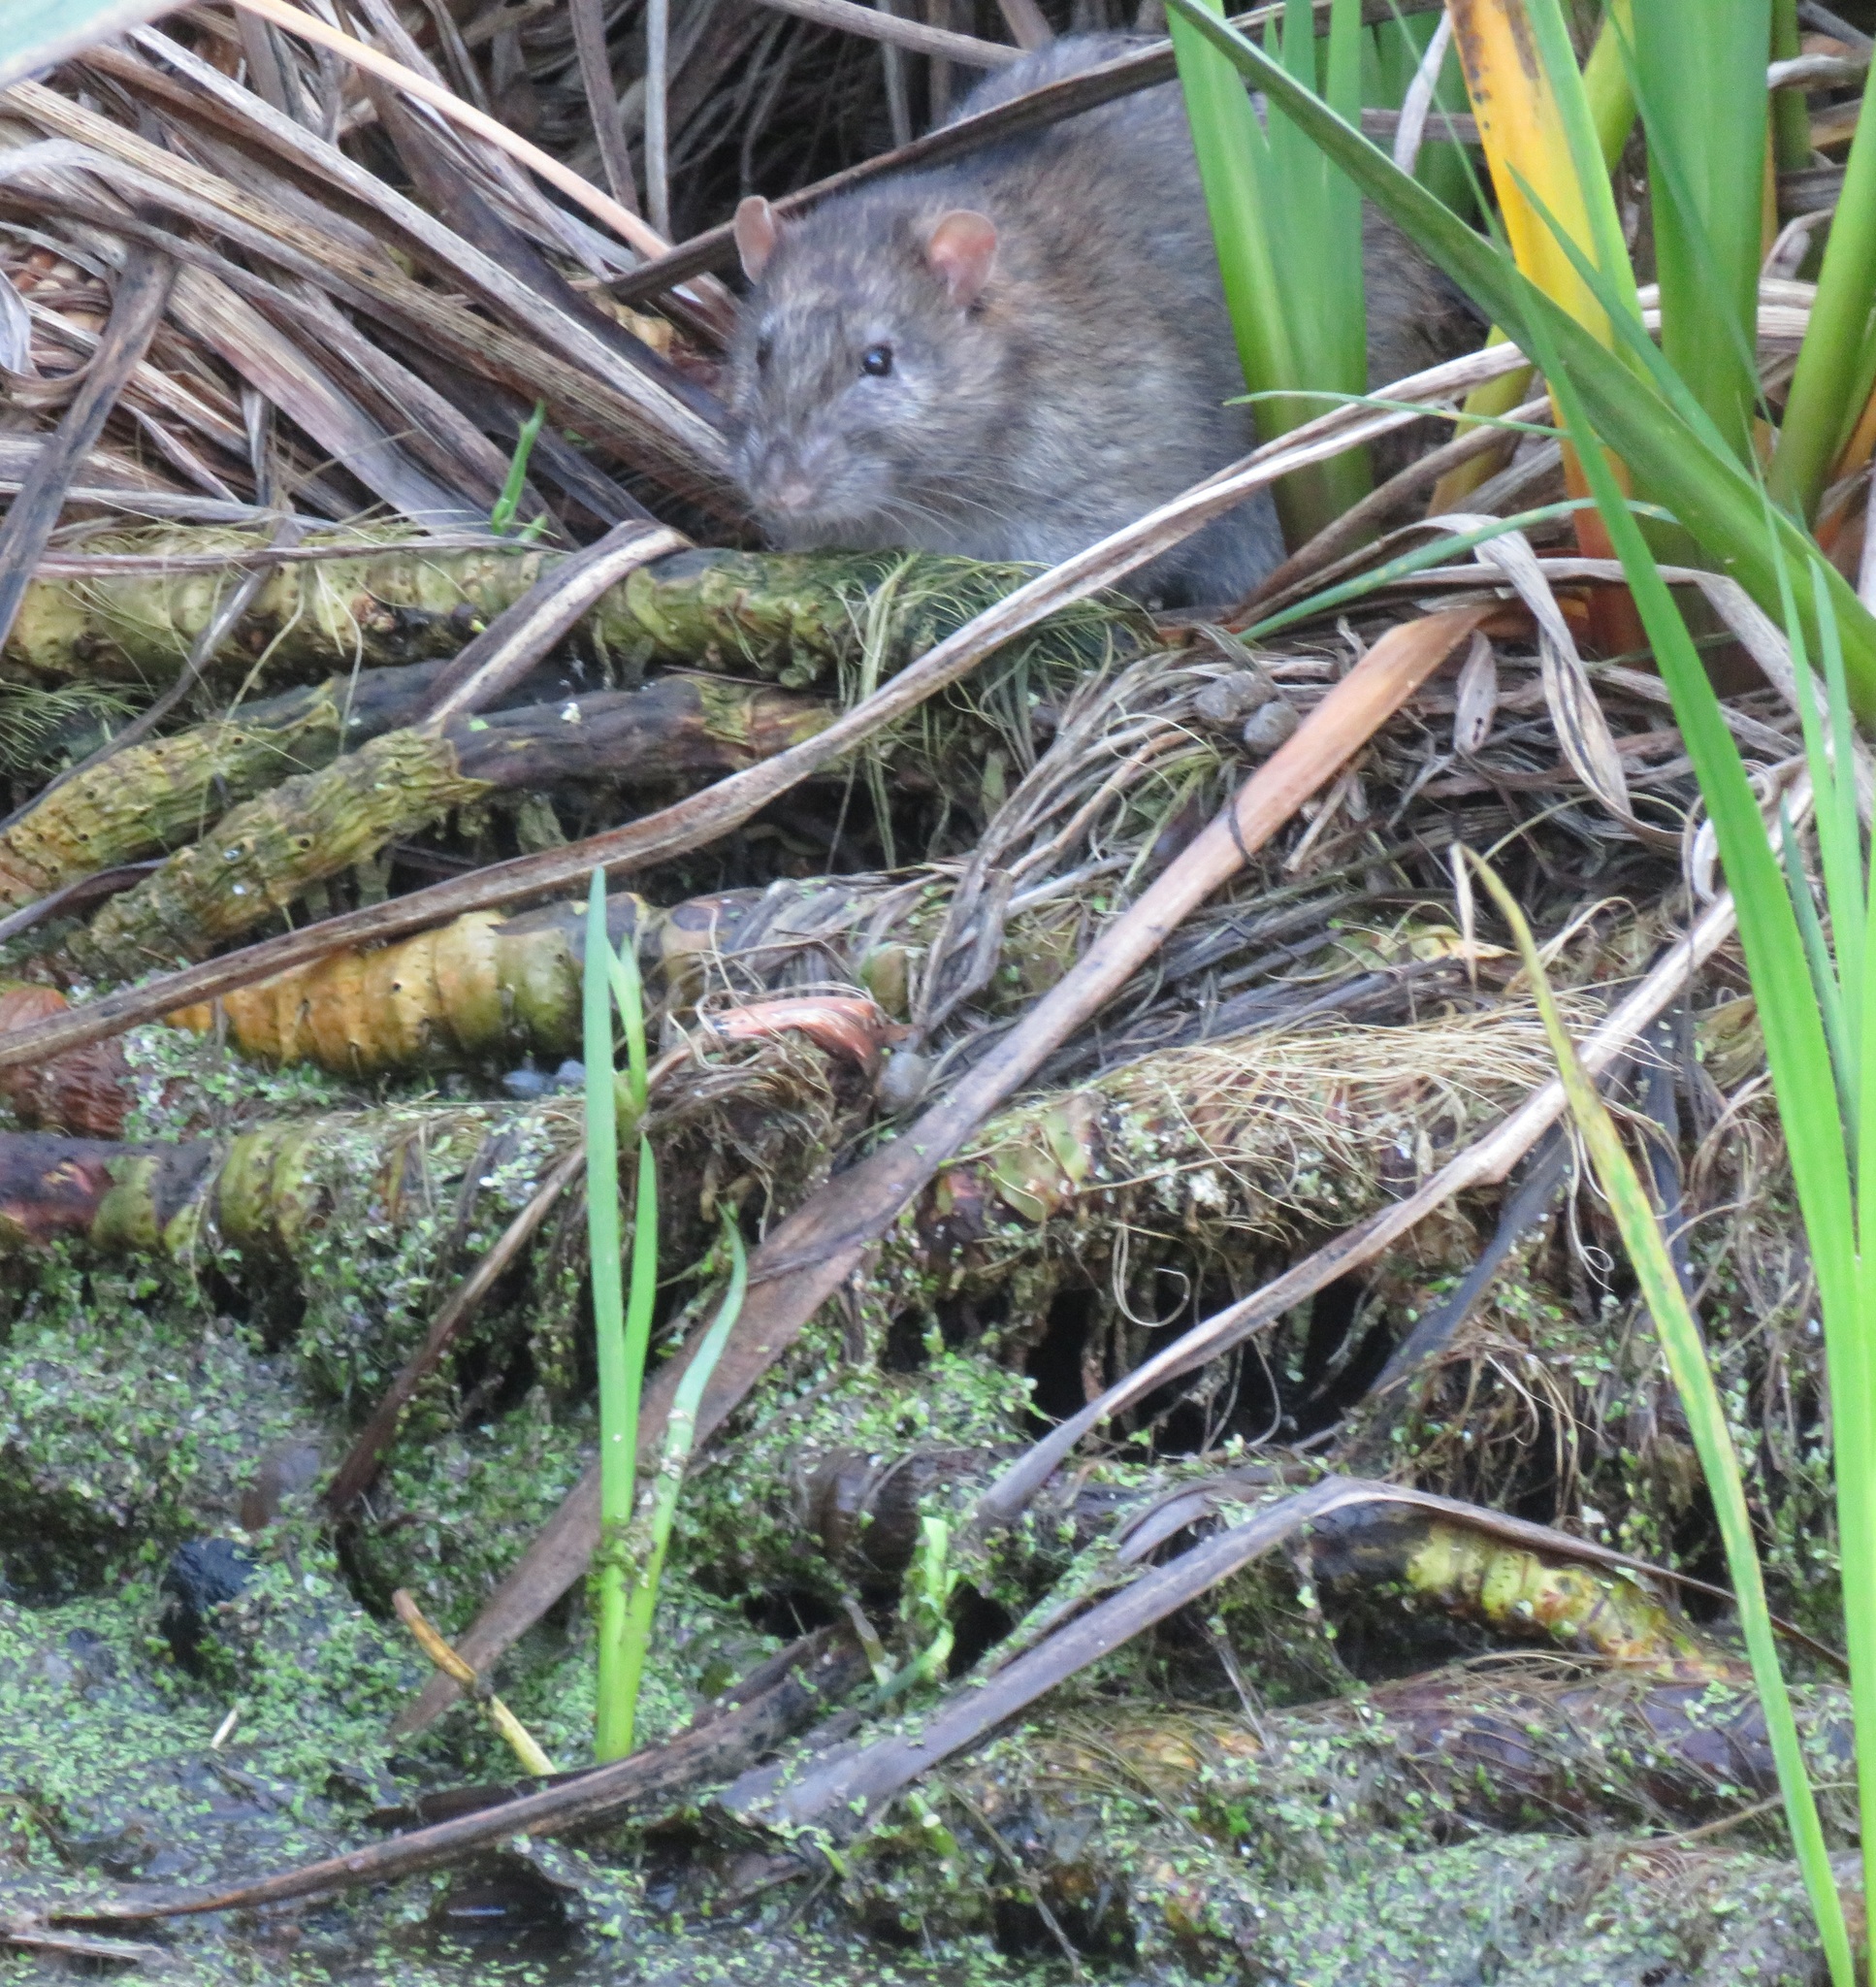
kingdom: Animalia
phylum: Chordata
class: Mammalia
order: Rodentia
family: Muridae
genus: Rattus
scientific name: Rattus norvegicus
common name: Brown rat
